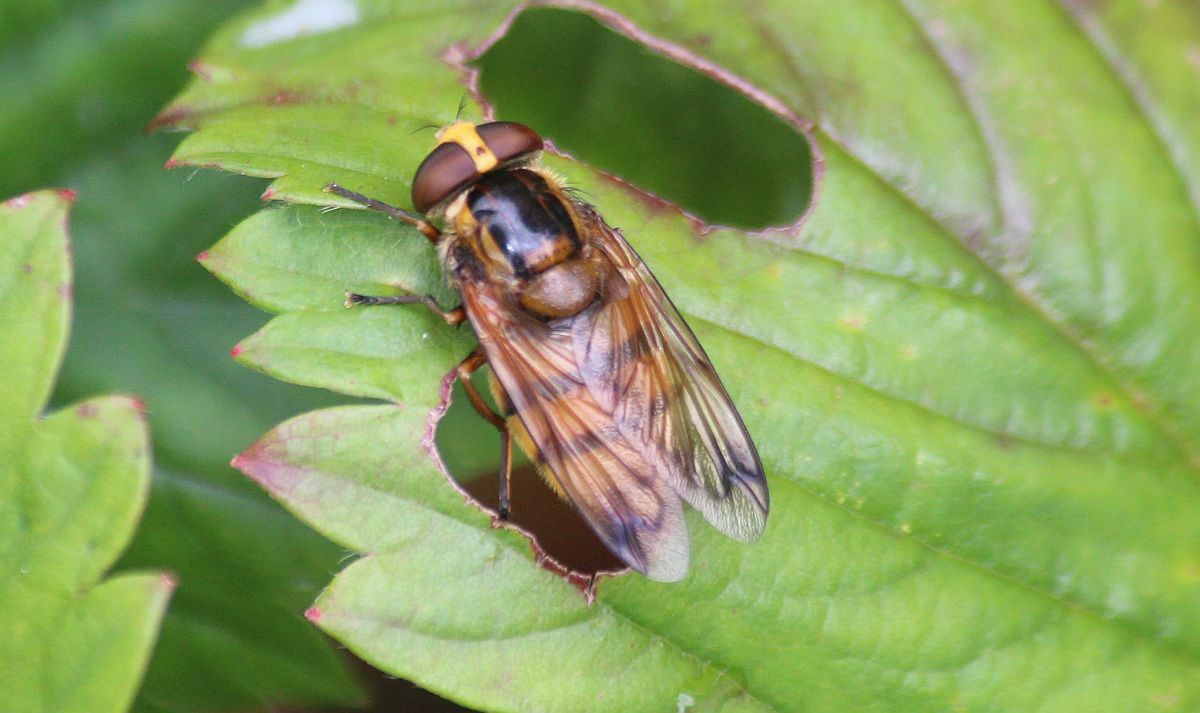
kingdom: Animalia
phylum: Arthropoda
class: Insecta
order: Diptera
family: Syrphidae
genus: Volucella
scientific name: Volucella inanis
